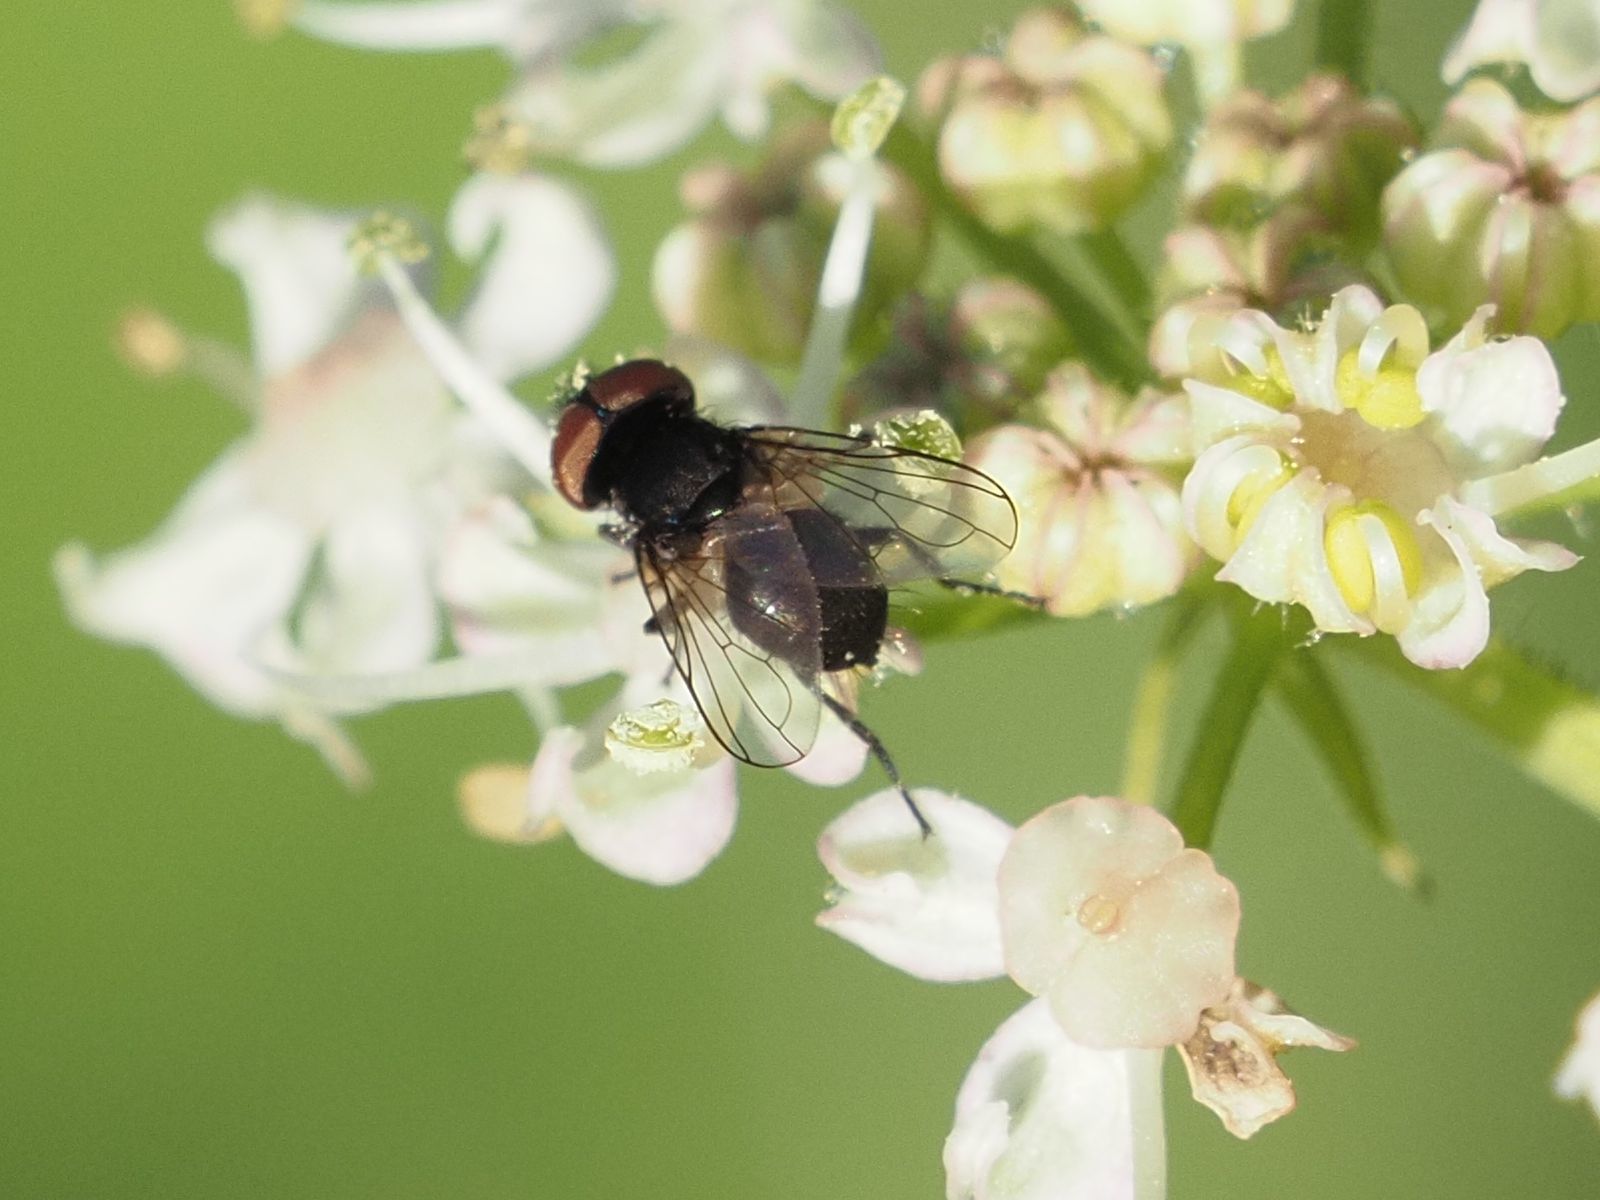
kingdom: Animalia
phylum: Arthropoda
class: Insecta
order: Diptera
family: Tachinidae
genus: Phasia
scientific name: Phasia barbifrons
